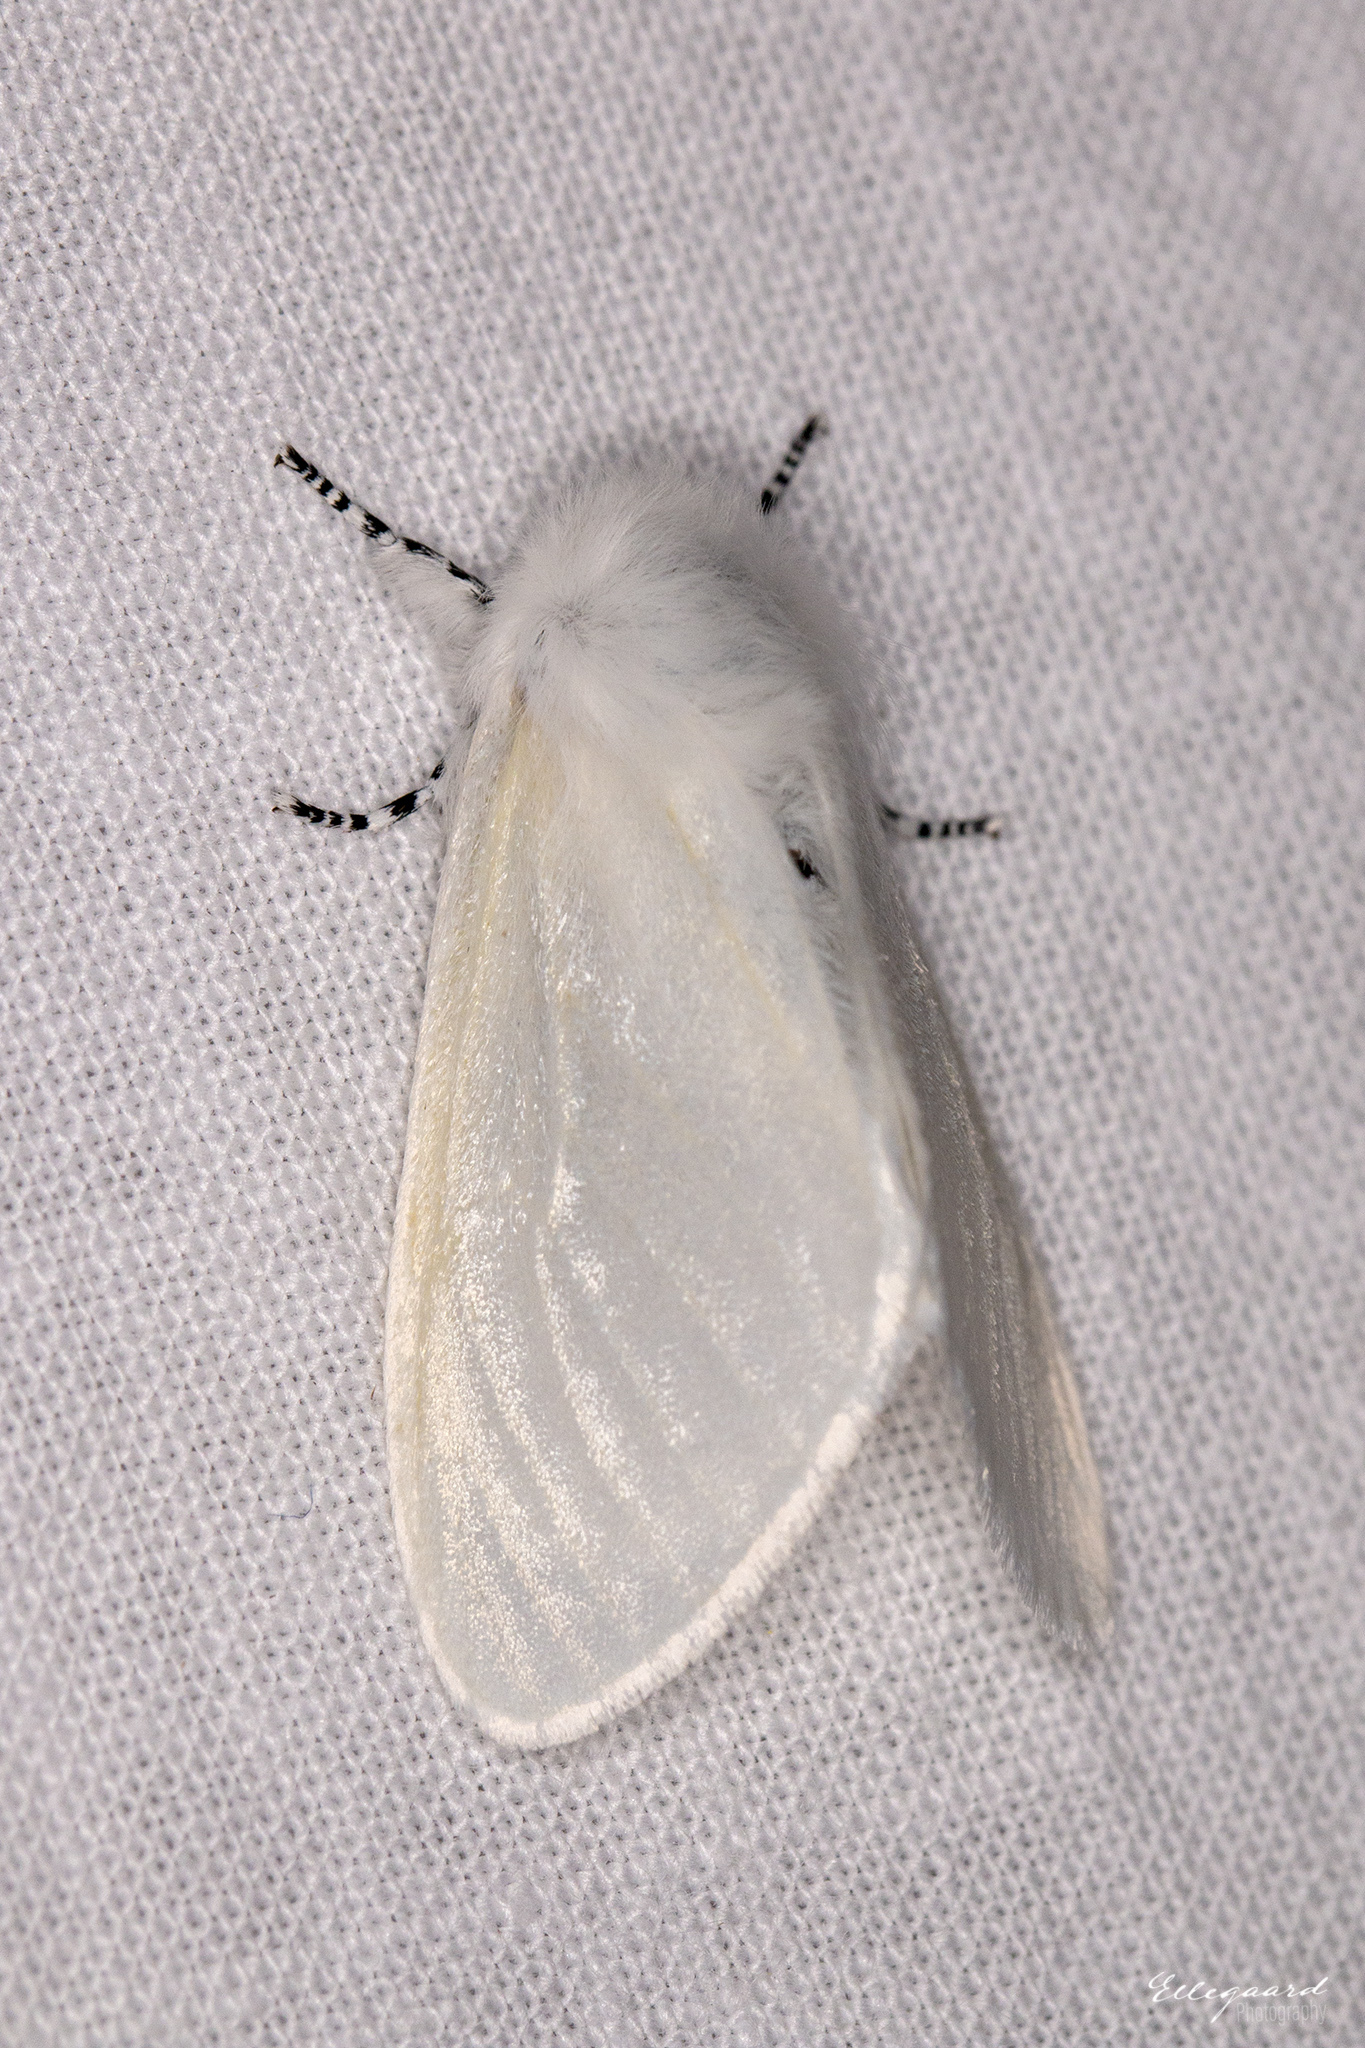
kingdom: Animalia
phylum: Arthropoda
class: Insecta
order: Lepidoptera
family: Erebidae
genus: Leucoma
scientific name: Leucoma salicis
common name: White satin moth
